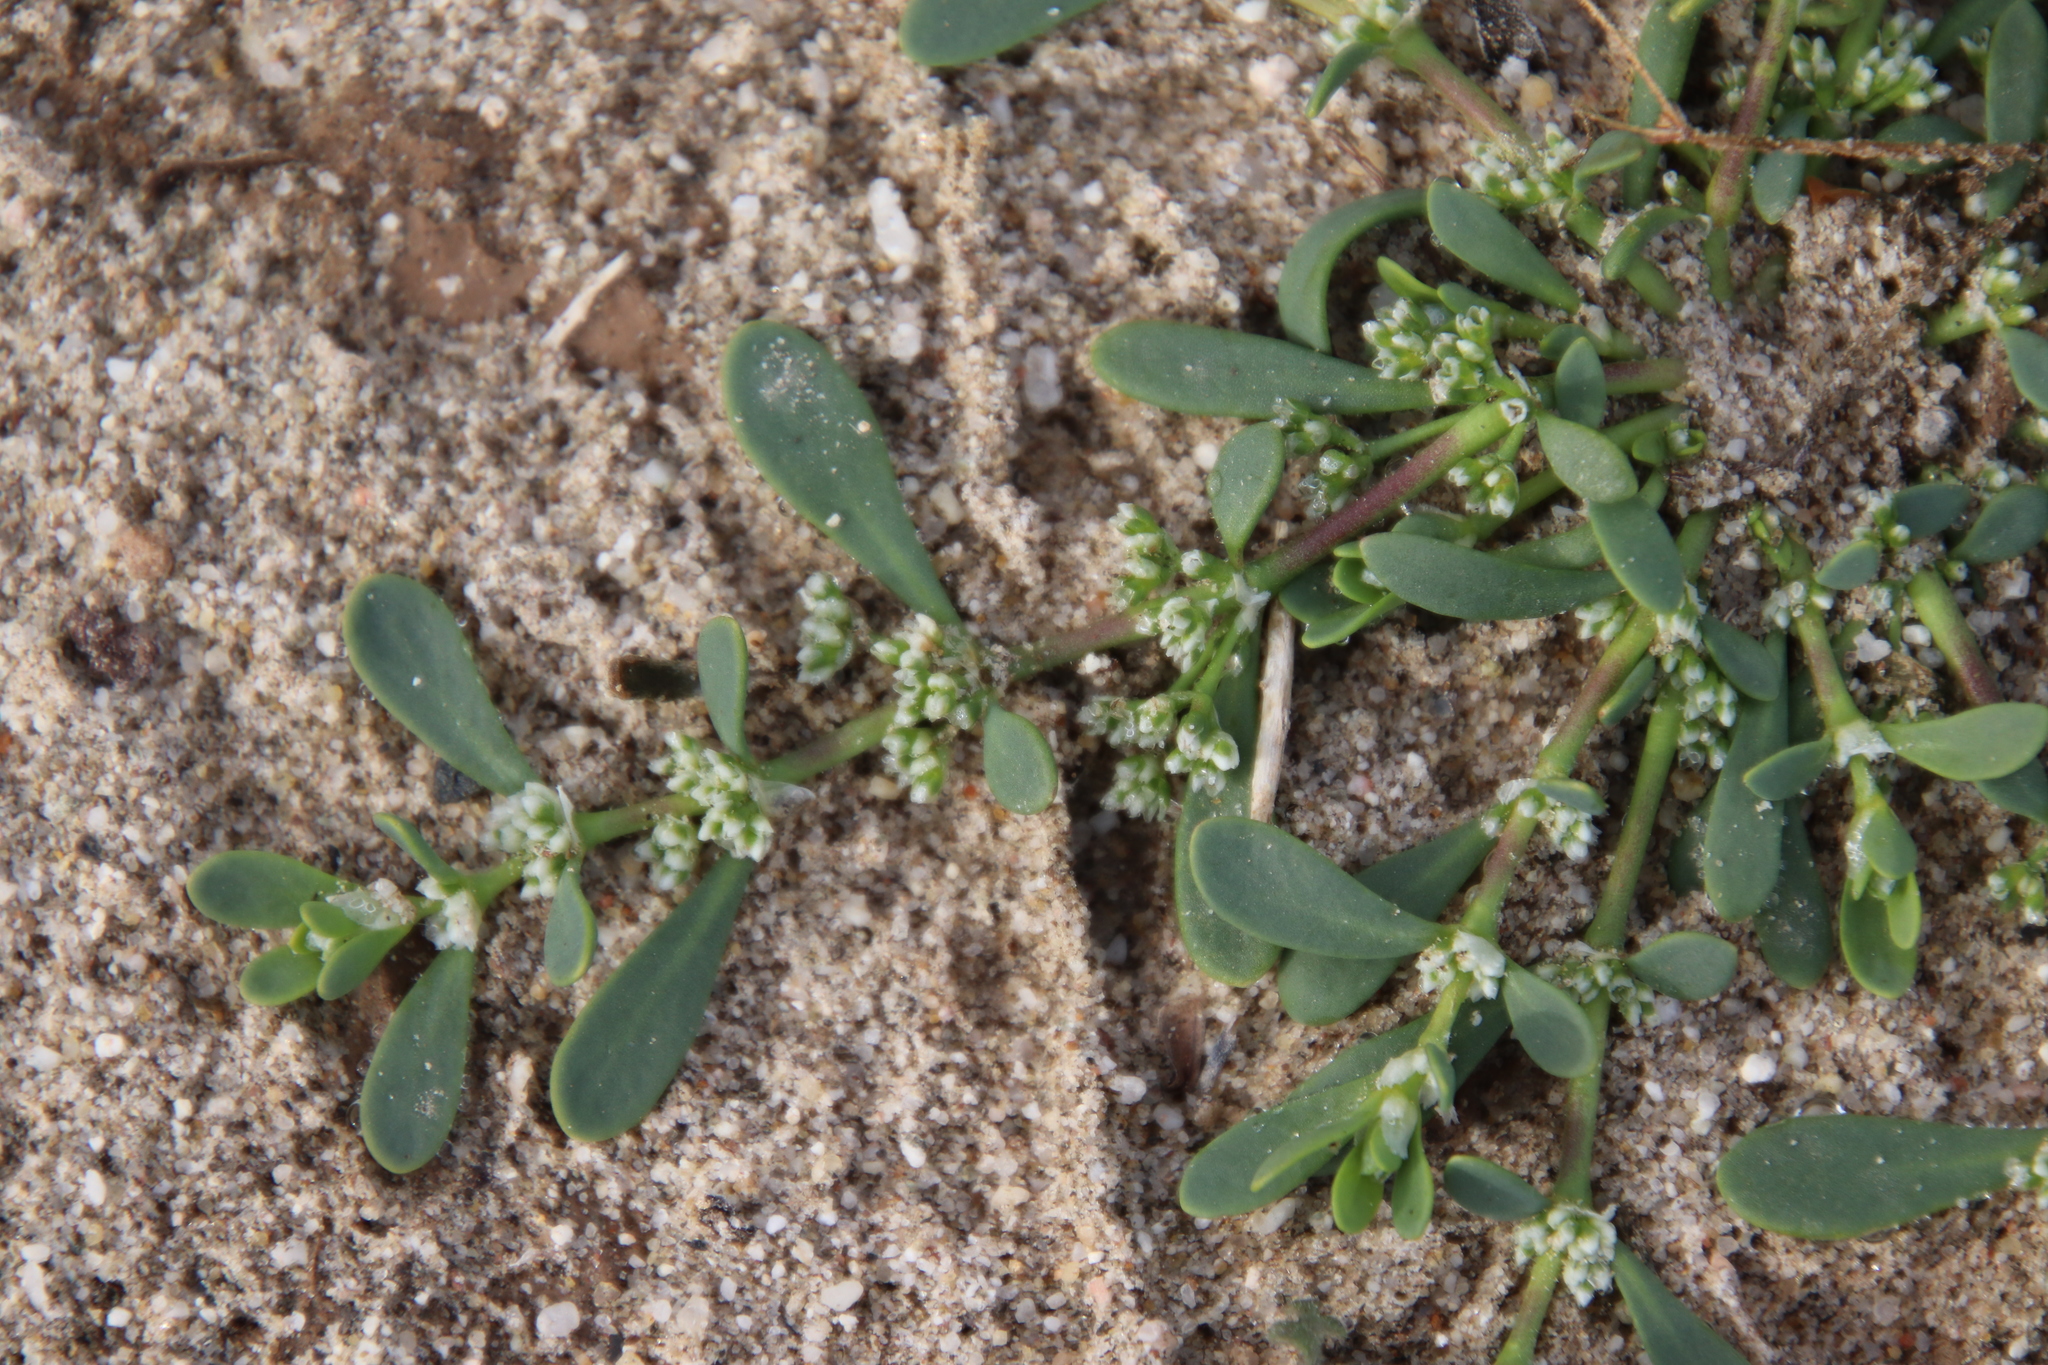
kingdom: Plantae
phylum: Tracheophyta
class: Magnoliopsida
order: Caryophyllales
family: Caryophyllaceae
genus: Achyronychia
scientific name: Achyronychia cooperi
